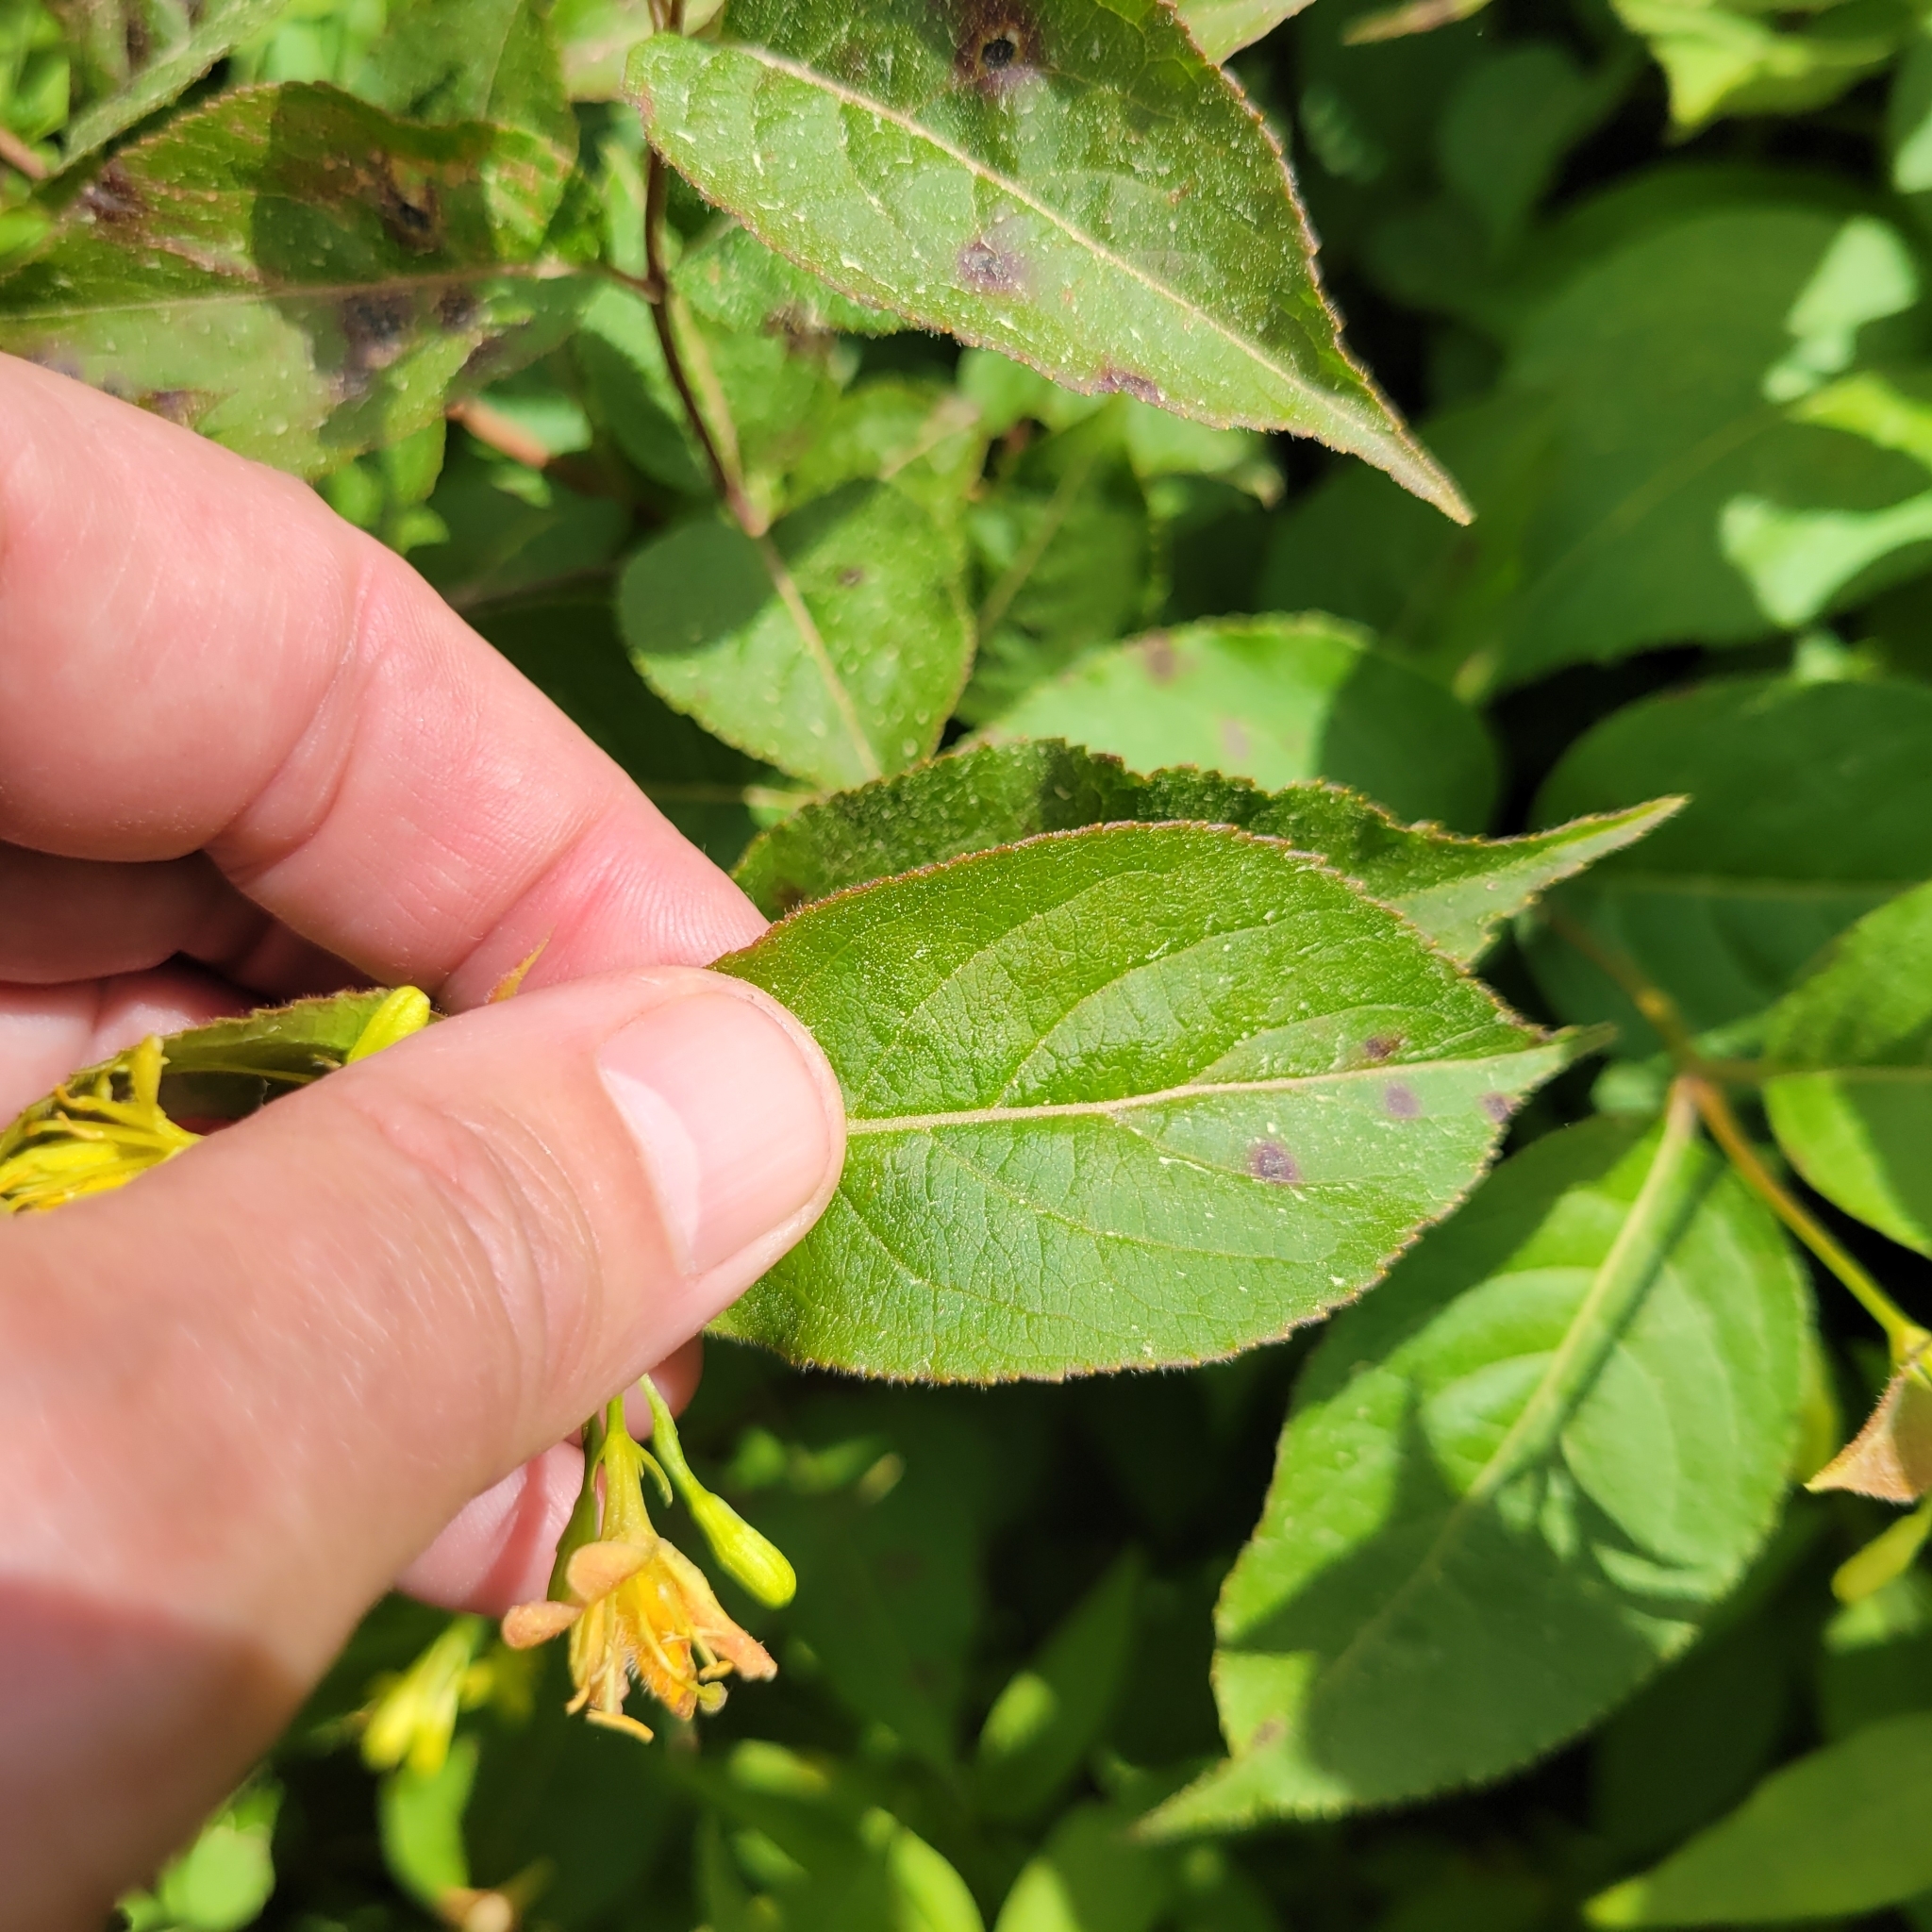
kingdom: Plantae
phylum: Tracheophyta
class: Magnoliopsida
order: Dipsacales
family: Caprifoliaceae
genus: Diervilla
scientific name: Diervilla lonicera
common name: Bush-honeysuckle
